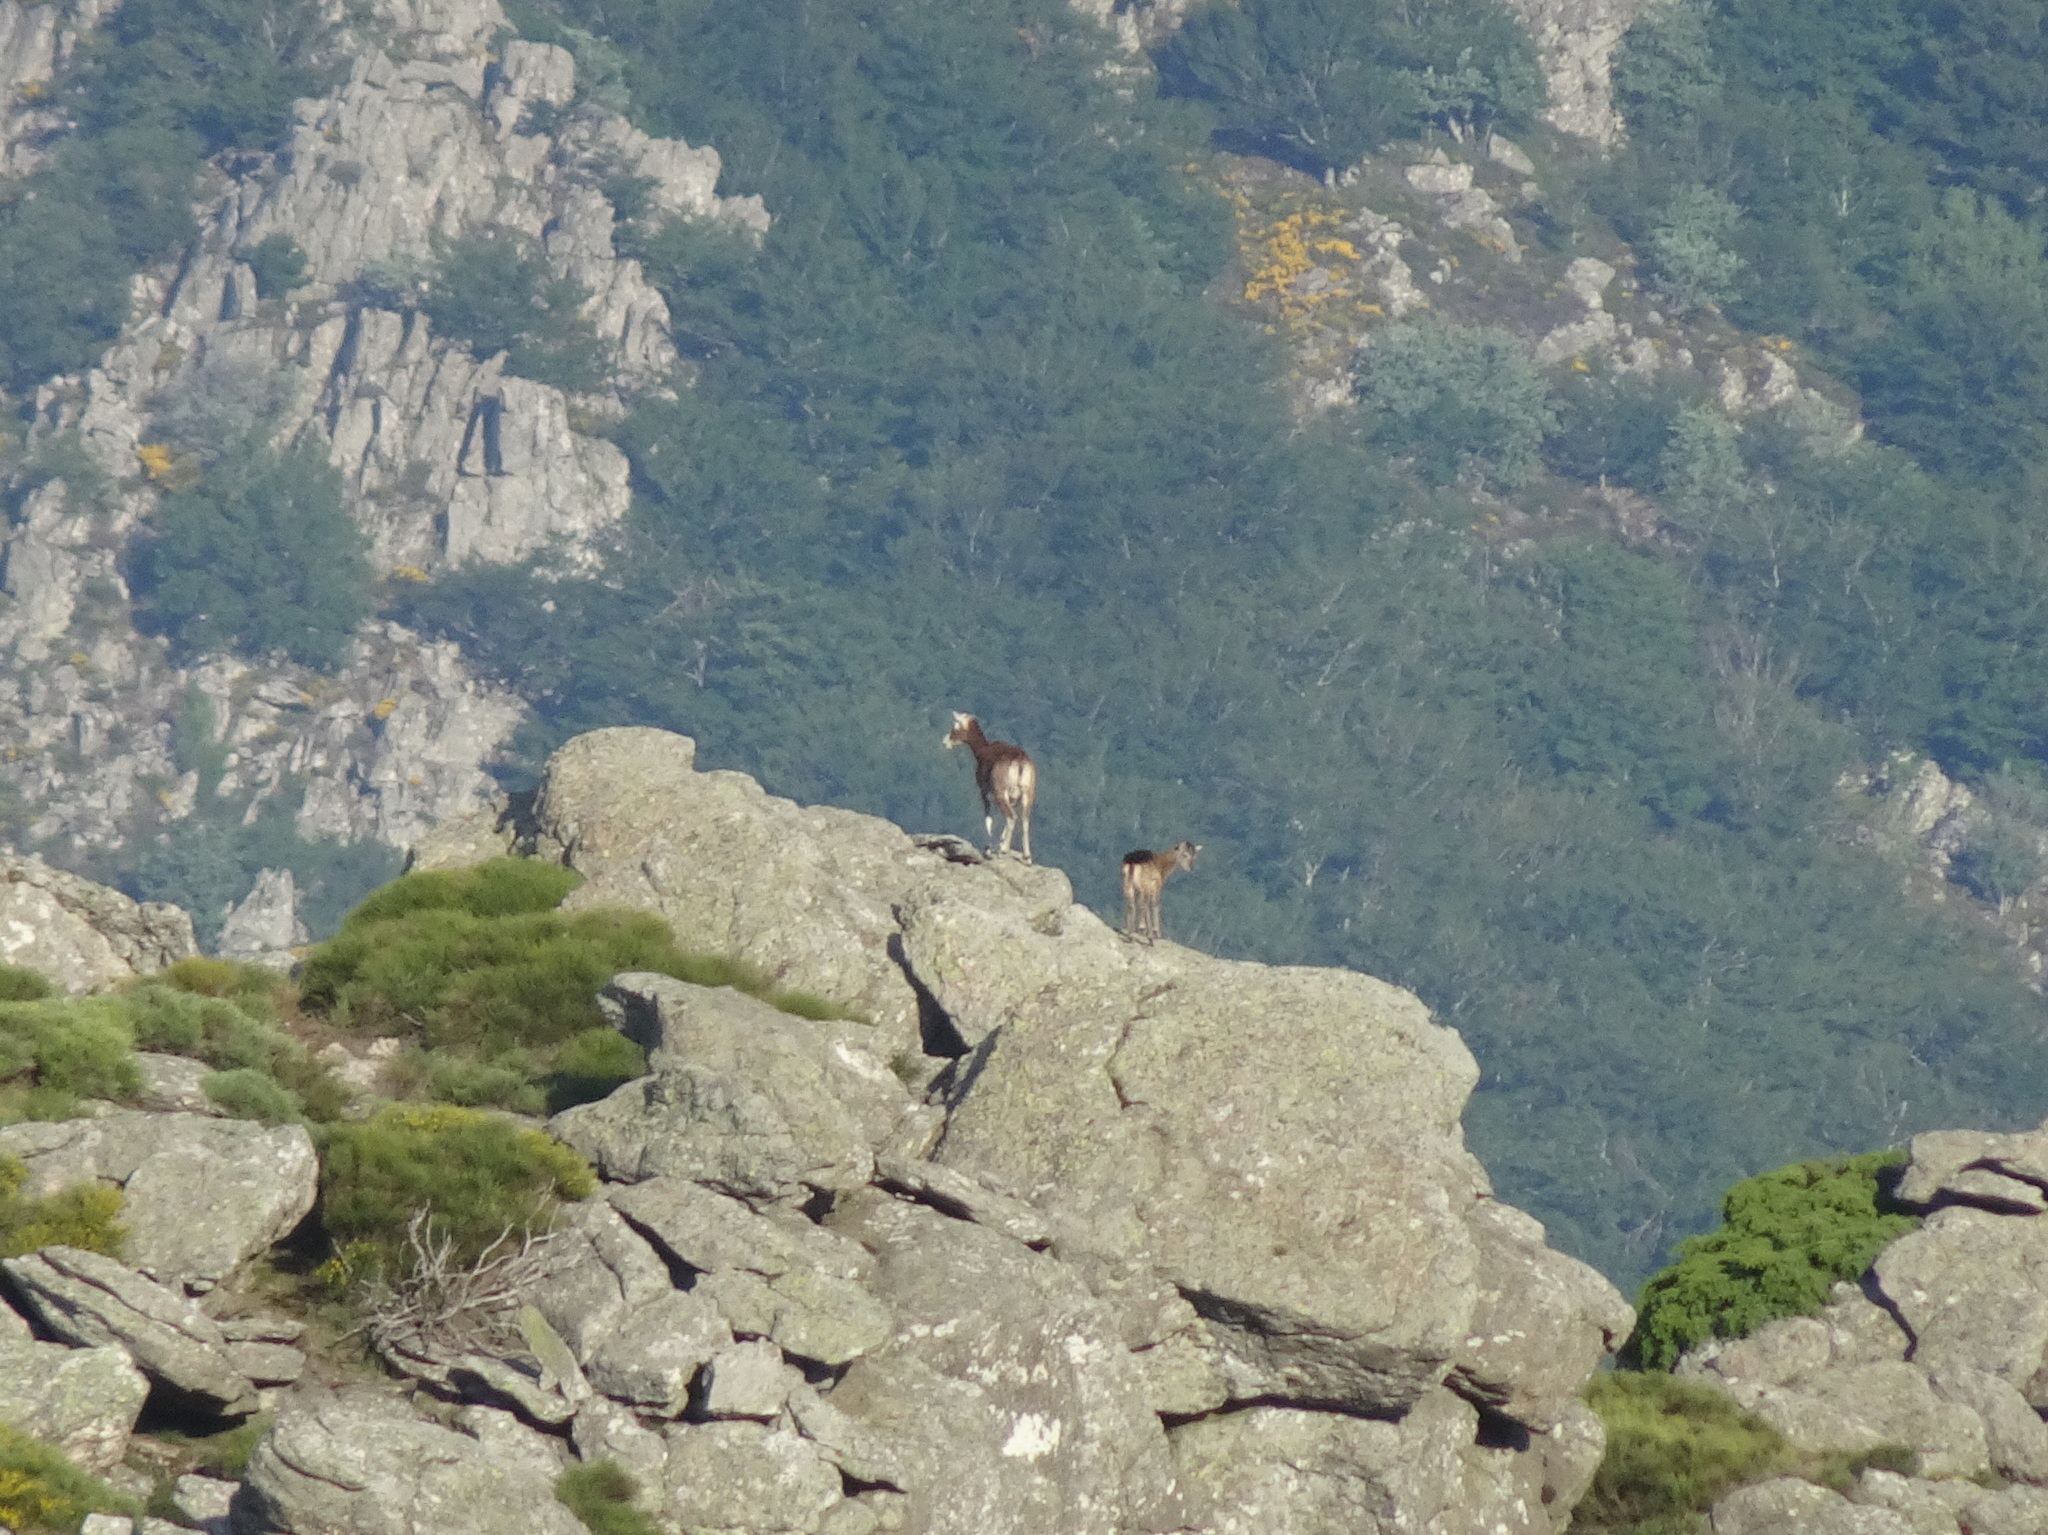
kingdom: Animalia
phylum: Chordata
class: Mammalia
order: Artiodactyla
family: Bovidae
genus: Ovis
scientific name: Ovis aries
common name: Domestic sheep
